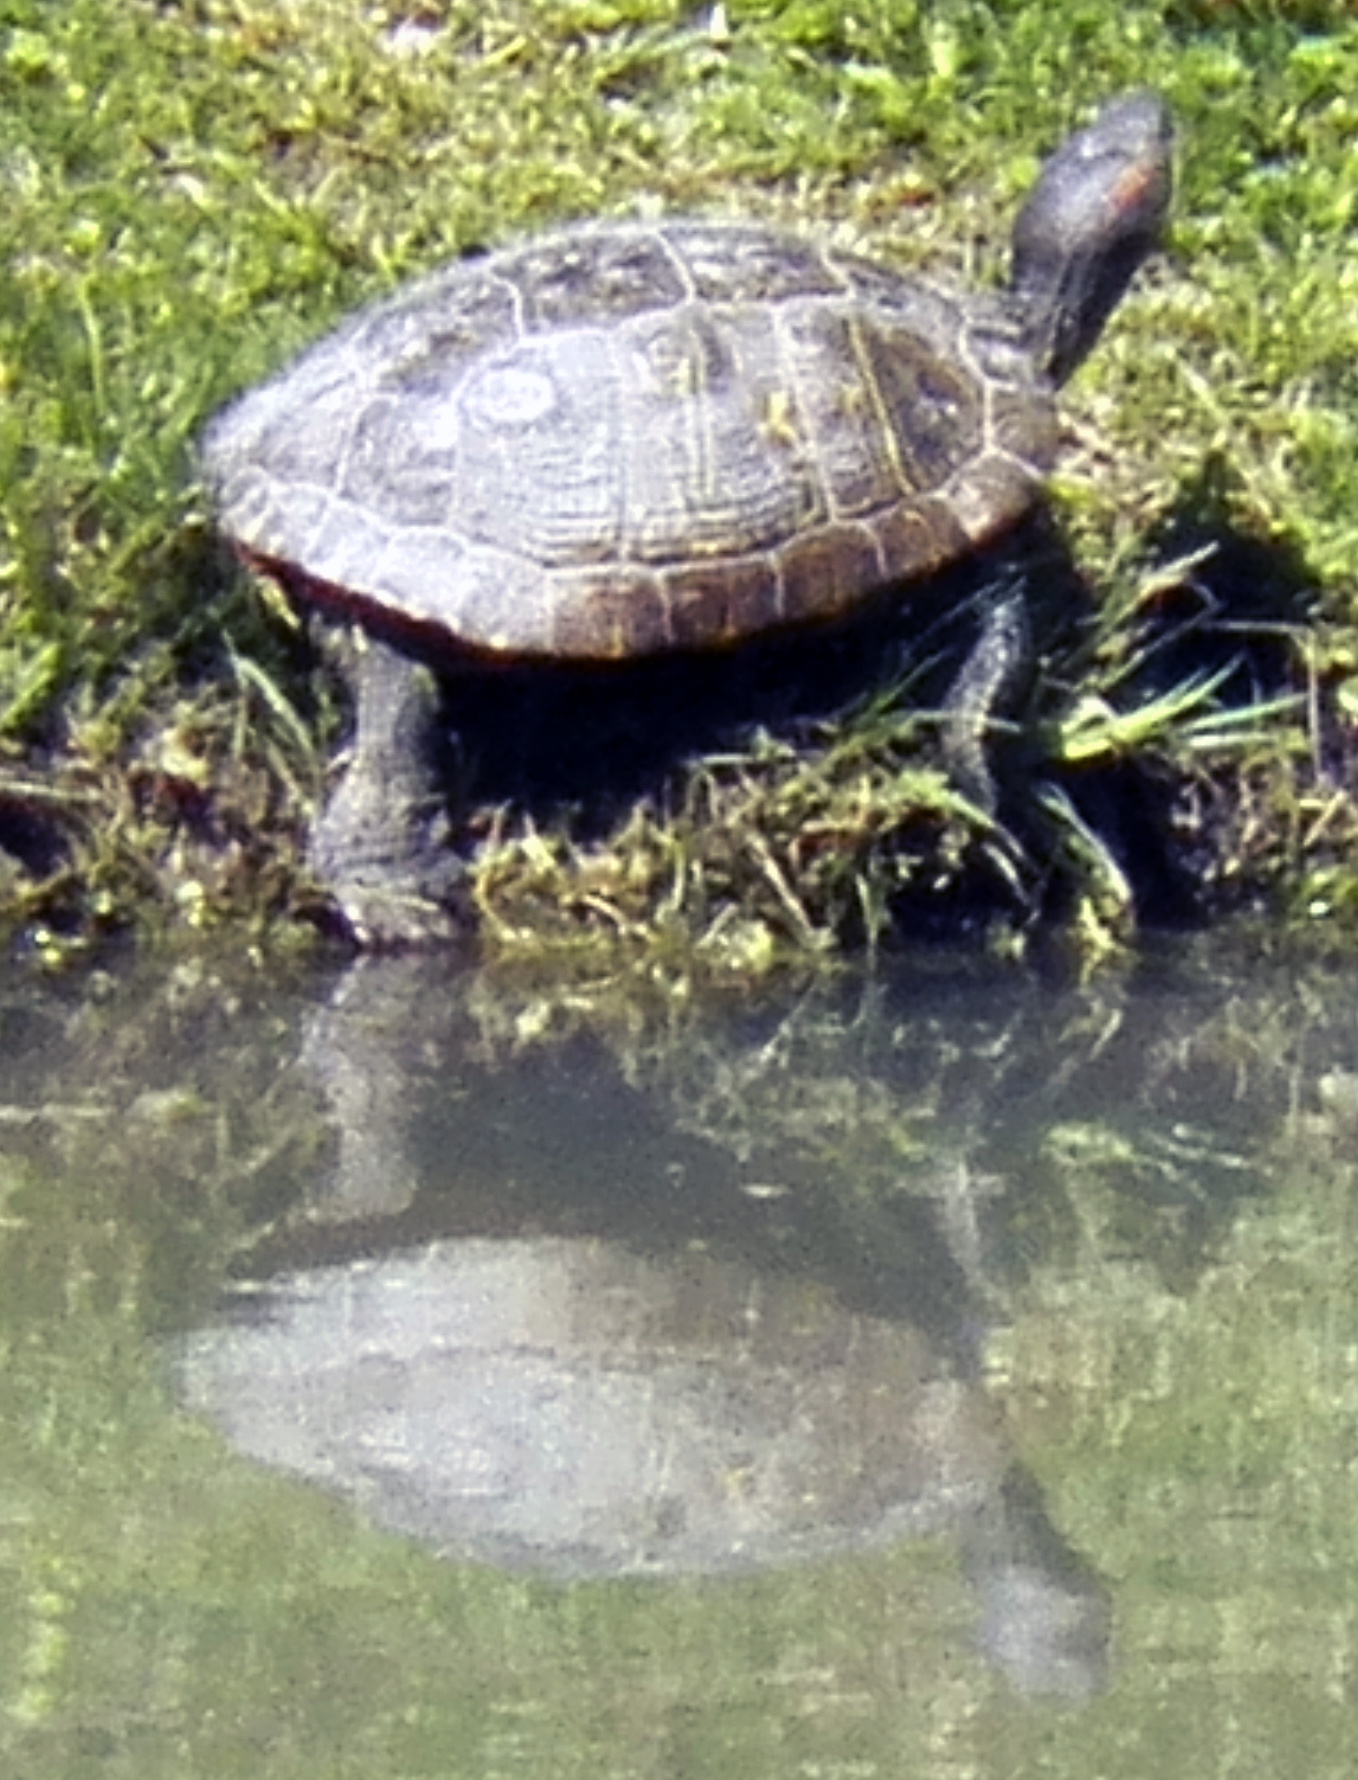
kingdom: Animalia
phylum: Chordata
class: Testudines
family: Emydidae
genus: Trachemys
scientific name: Trachemys scripta
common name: Slider
